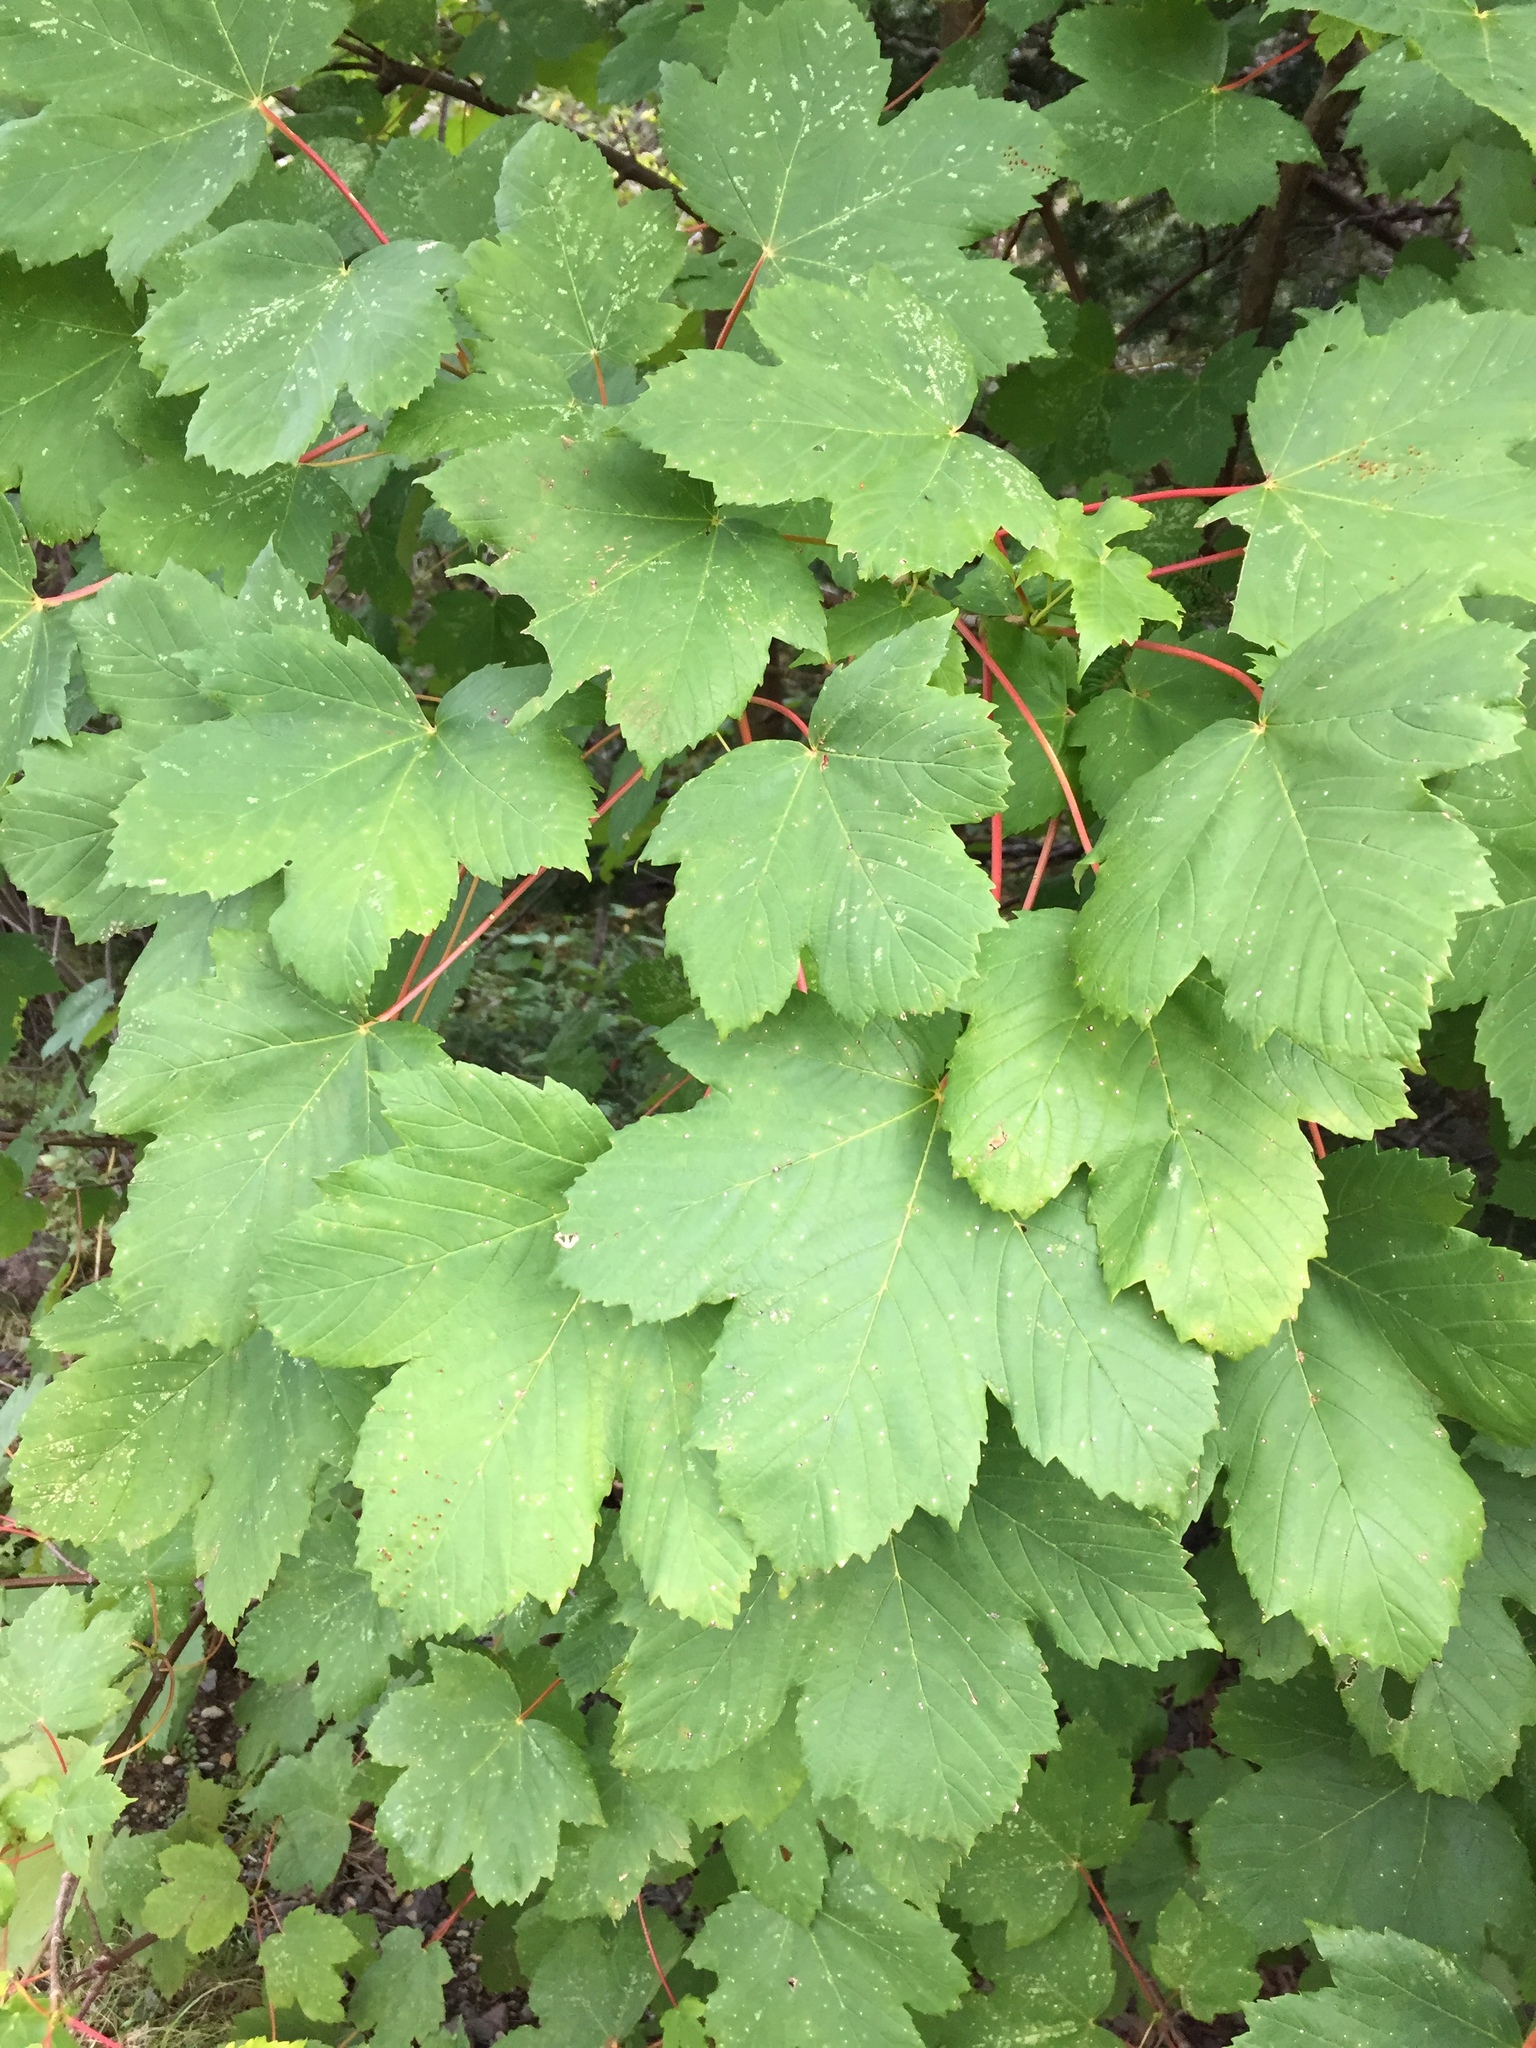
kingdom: Plantae
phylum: Tracheophyta
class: Magnoliopsida
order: Sapindales
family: Sapindaceae
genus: Acer
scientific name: Acer pseudoplatanus
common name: Sycamore
